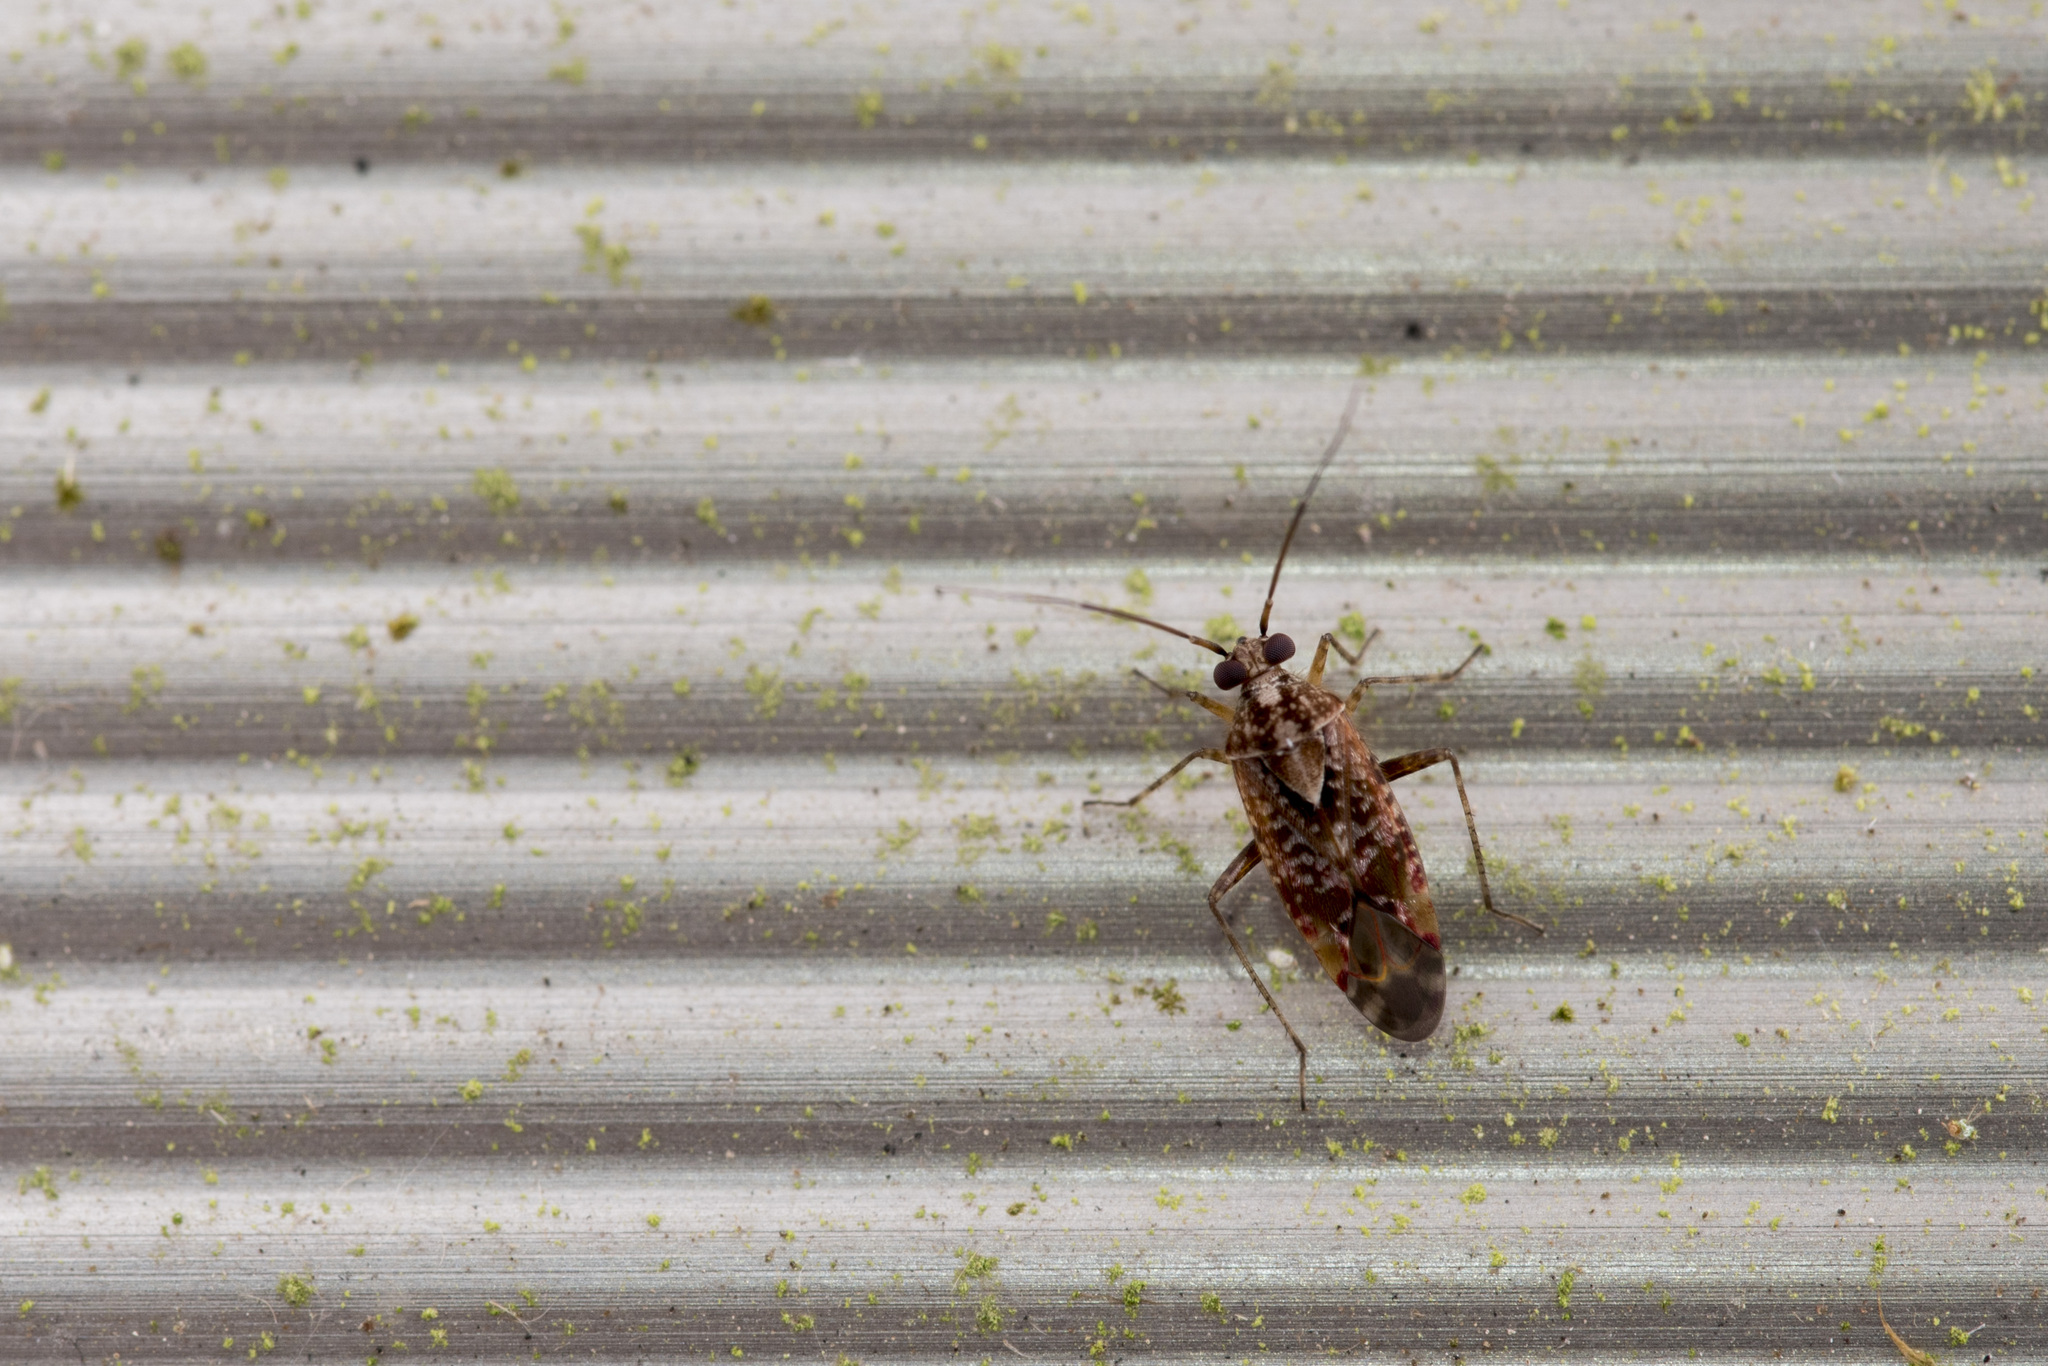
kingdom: Animalia
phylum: Arthropoda
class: Insecta
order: Hemiptera
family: Miridae
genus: Tinginotum
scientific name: Tinginotum perlatum
